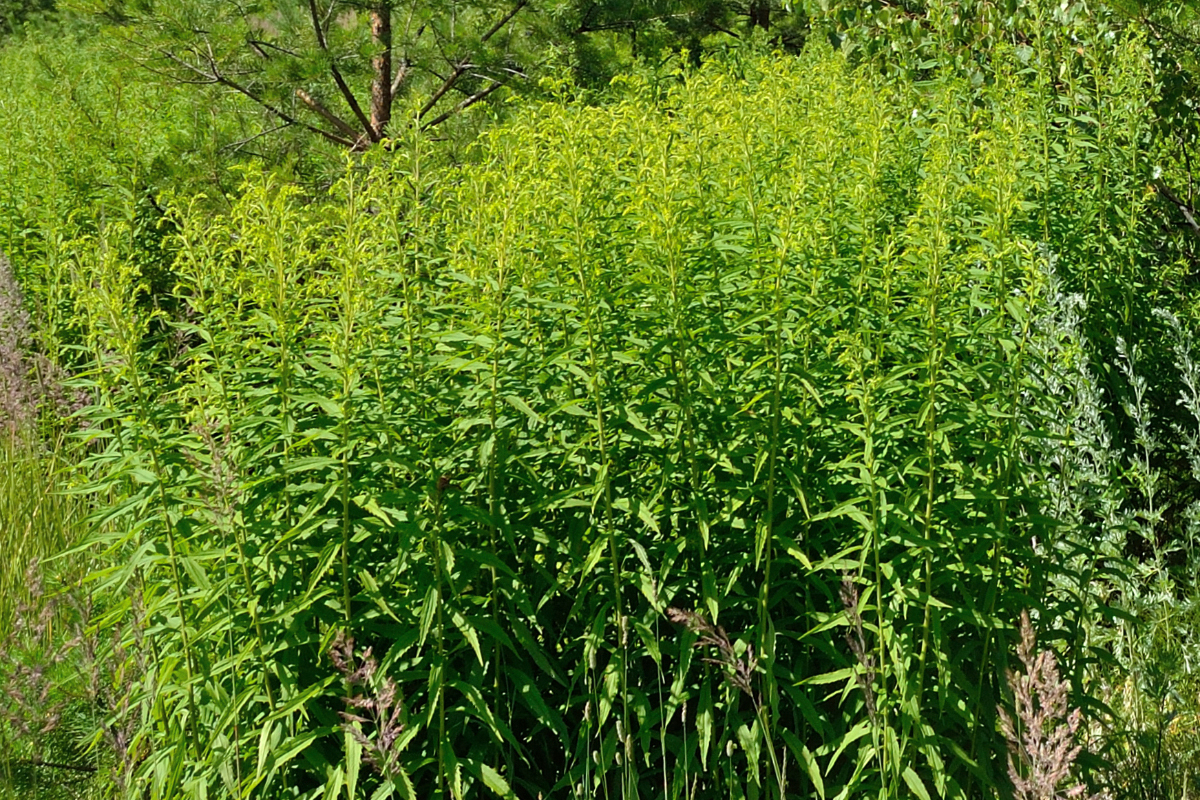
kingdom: Plantae
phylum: Tracheophyta
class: Magnoliopsida
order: Asterales
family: Asteraceae
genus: Solidago
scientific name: Solidago canadensis
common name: Canada goldenrod
